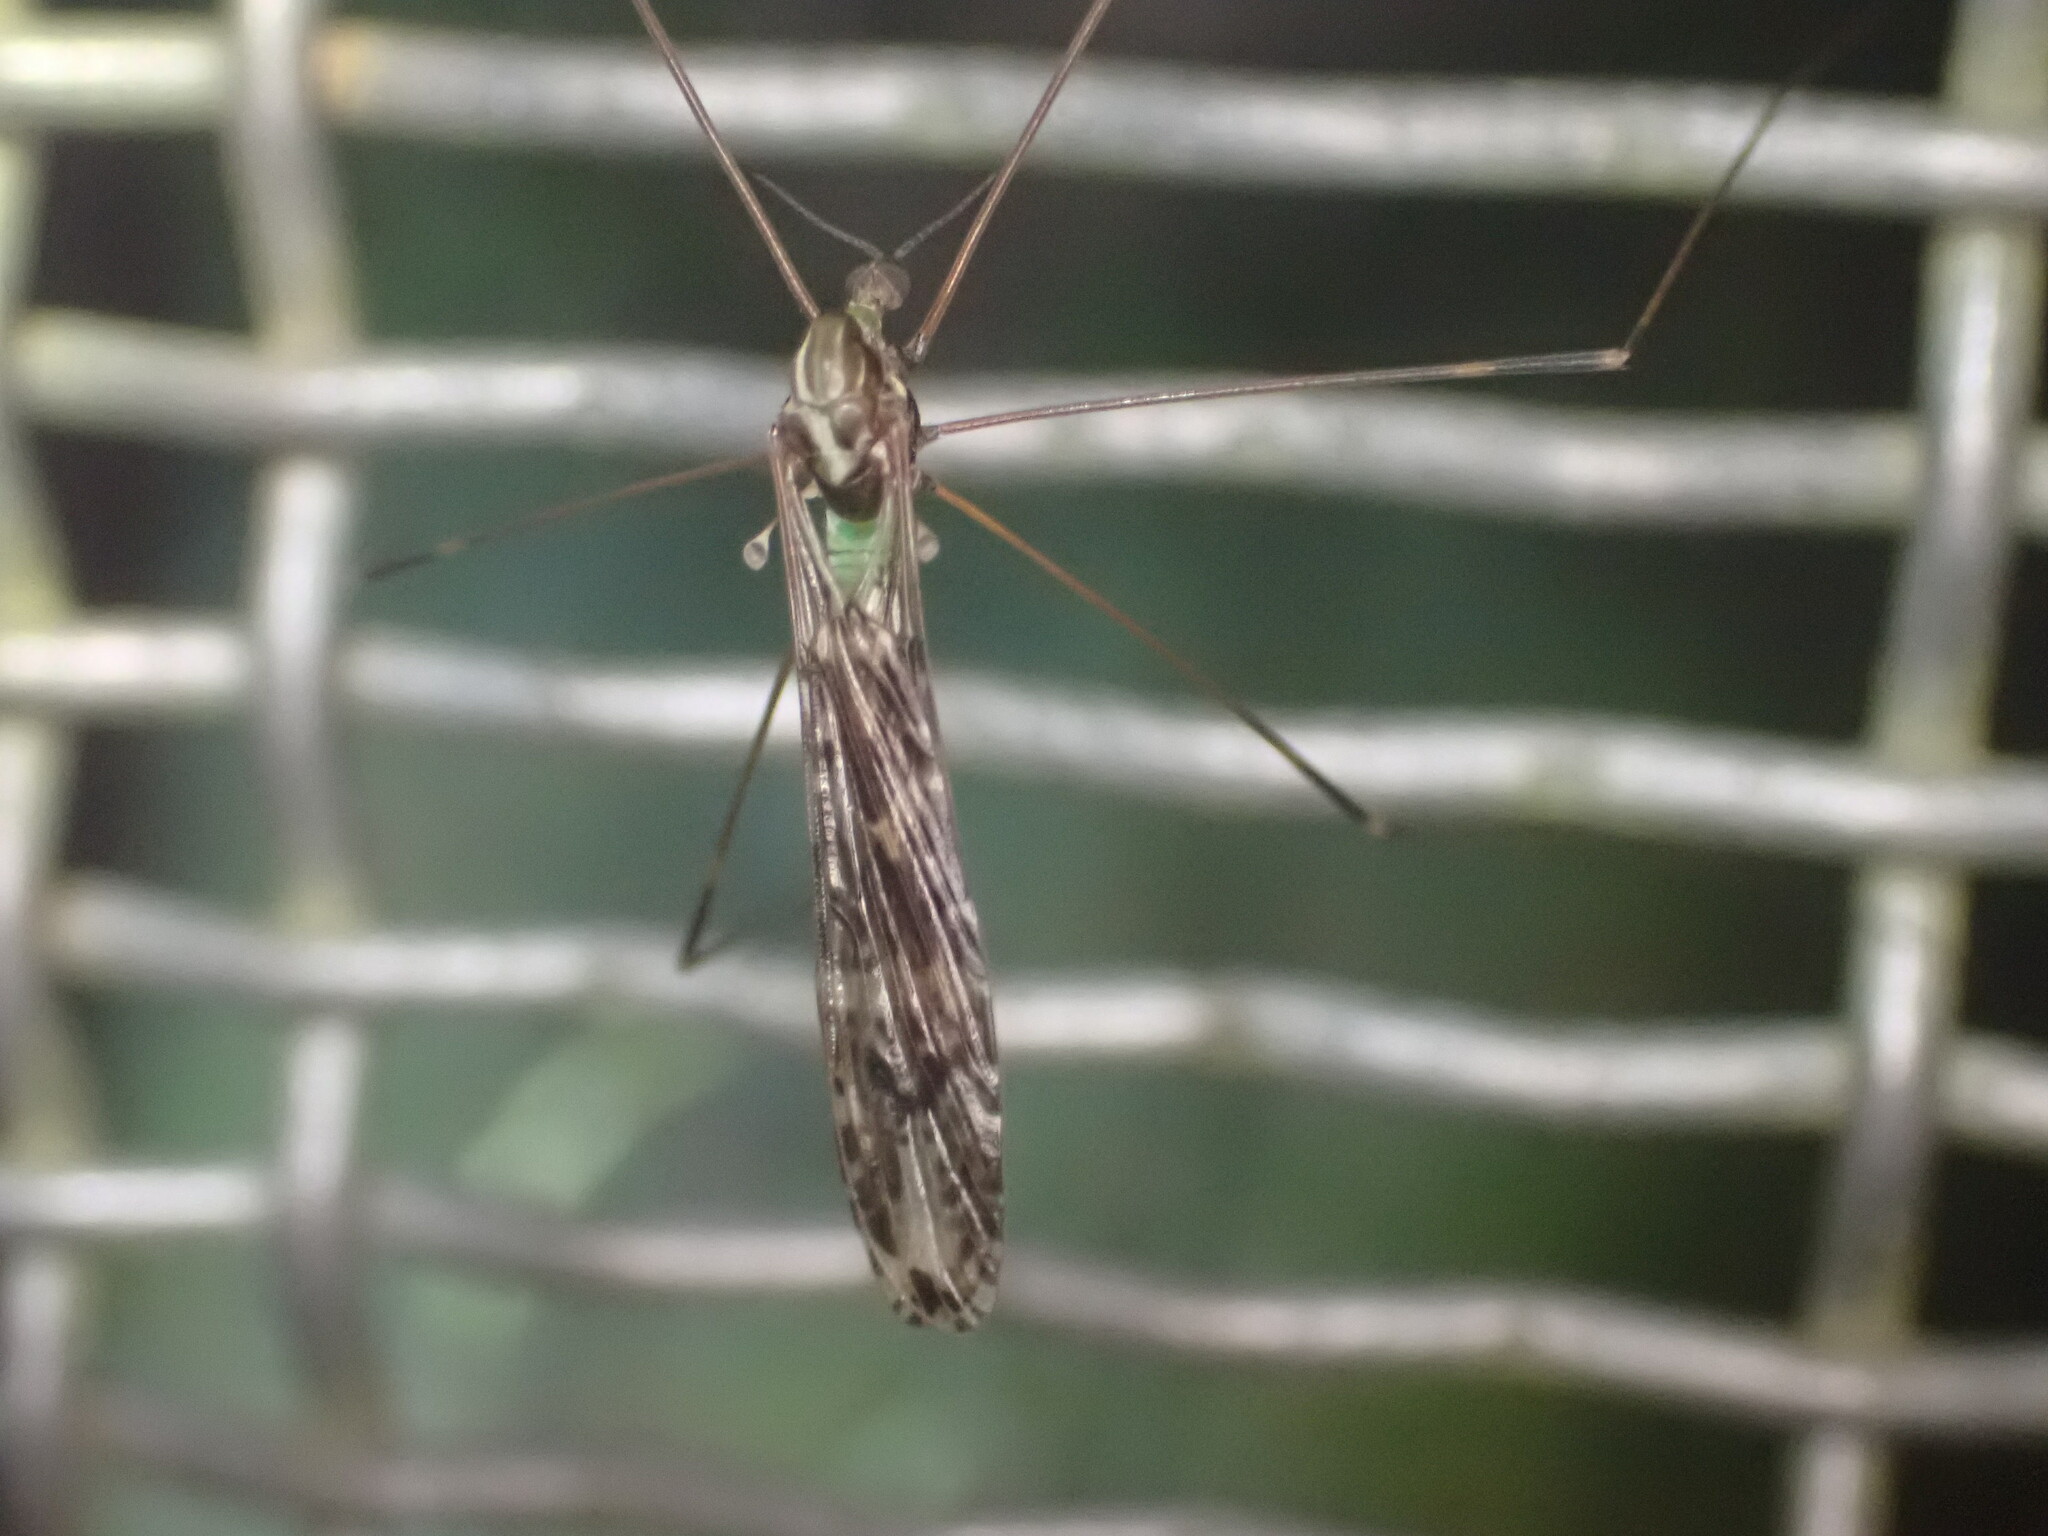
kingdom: Animalia
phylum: Arthropoda
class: Insecta
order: Diptera
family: Limoniidae
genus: Discobola
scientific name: Discobola dohrni
